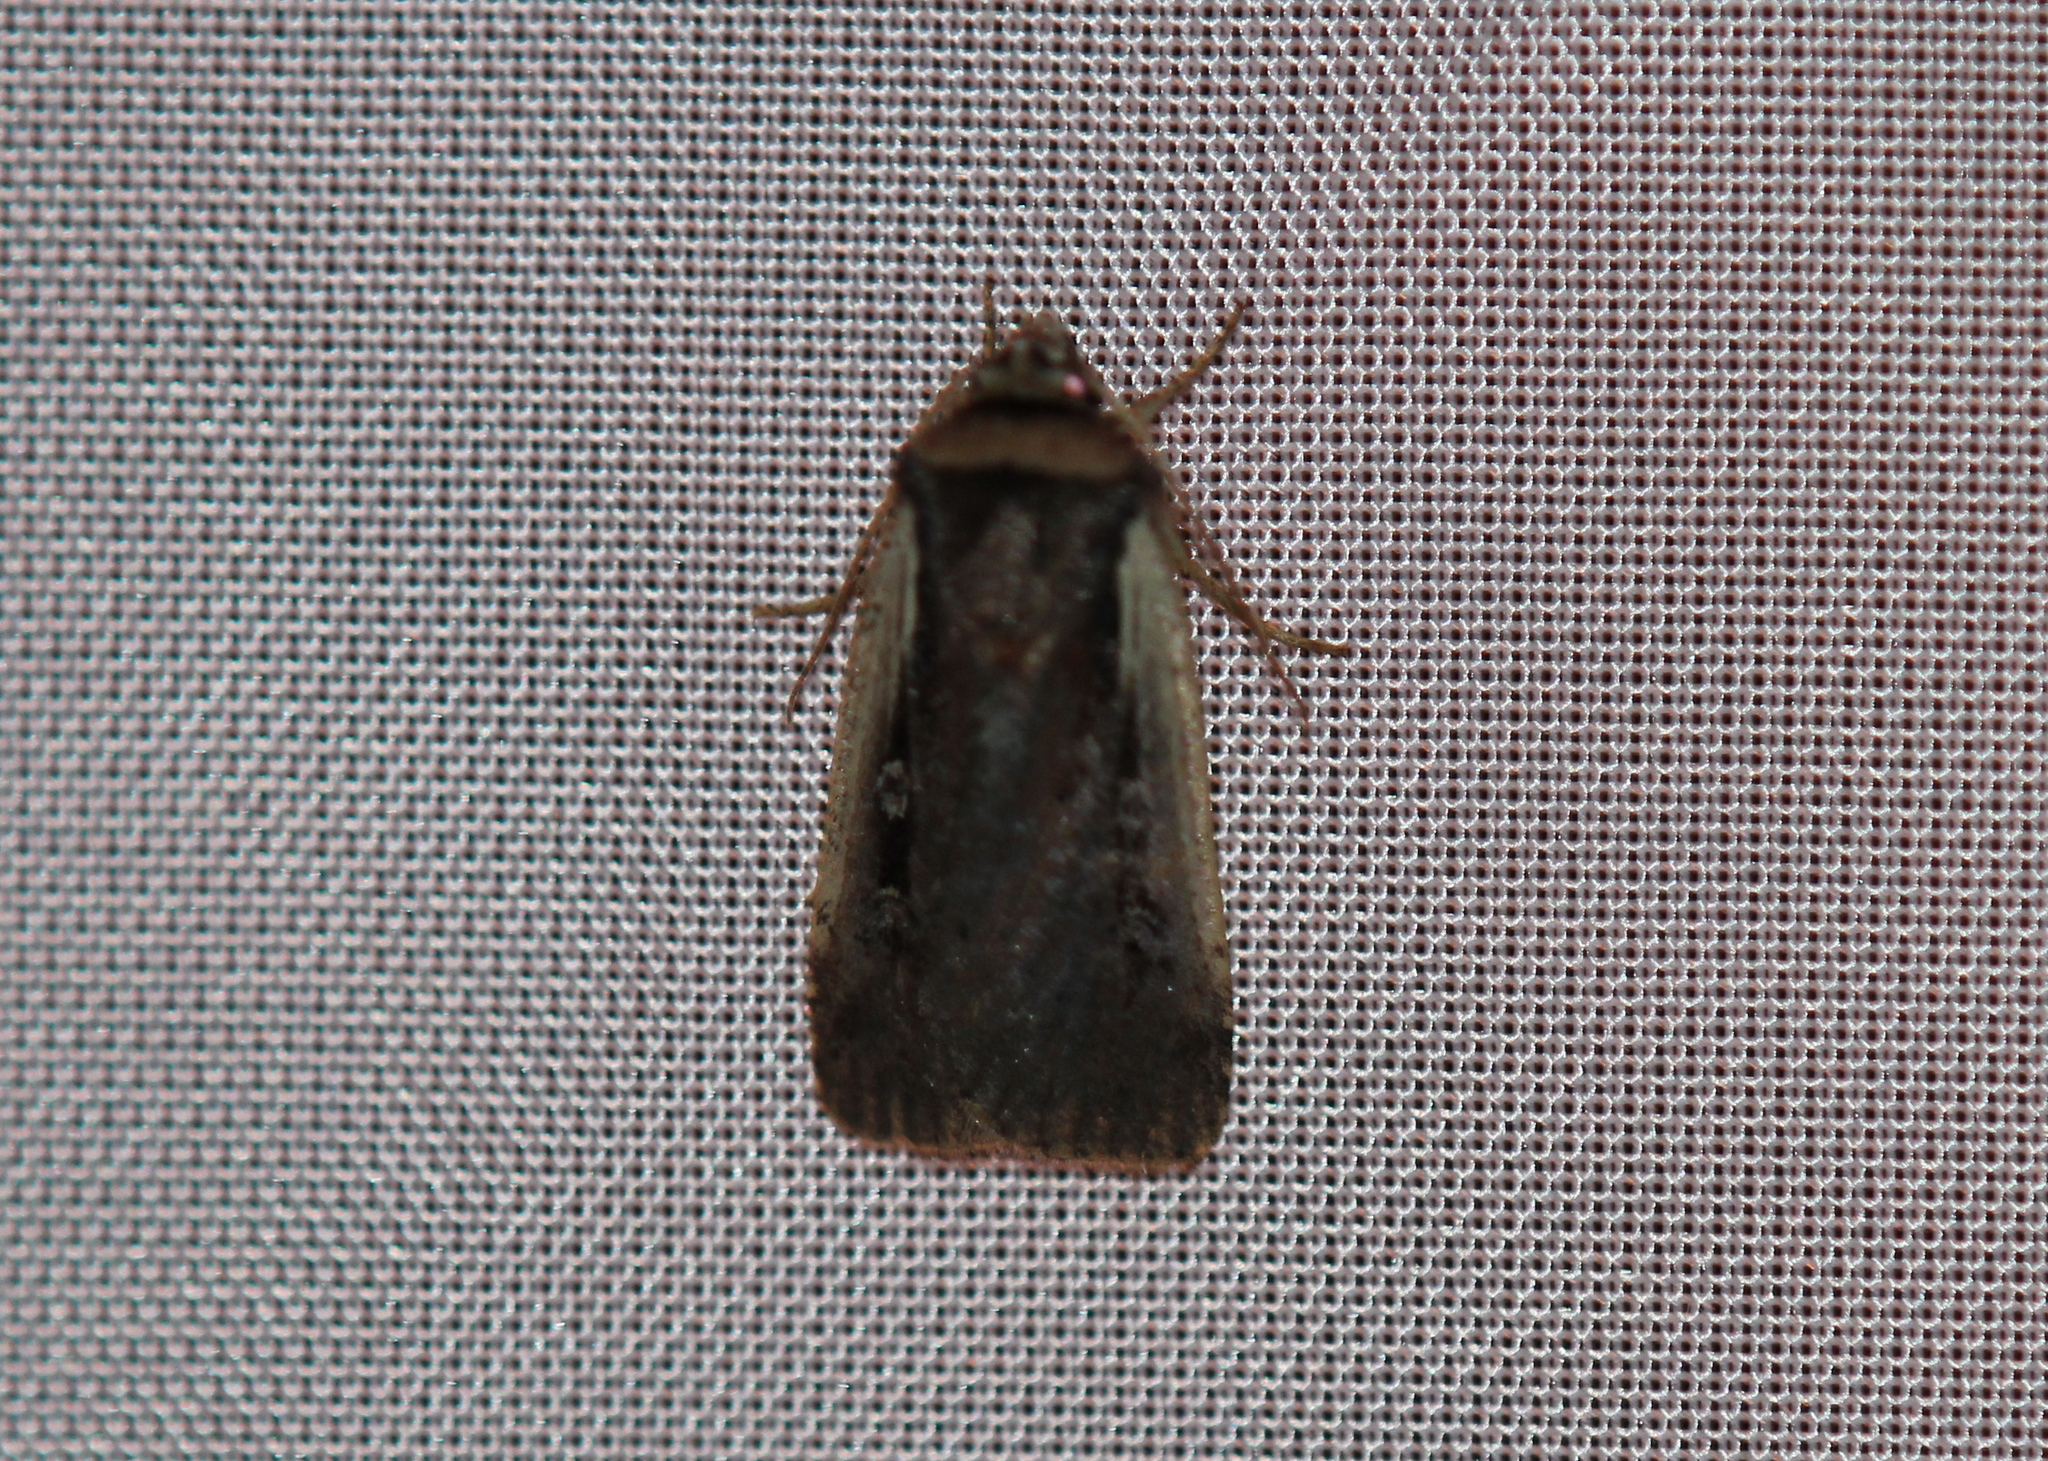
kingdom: Animalia
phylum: Arthropoda
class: Insecta
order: Lepidoptera
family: Noctuidae
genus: Ochropleura
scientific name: Ochropleura implecta
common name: Flame-shouldered dart
